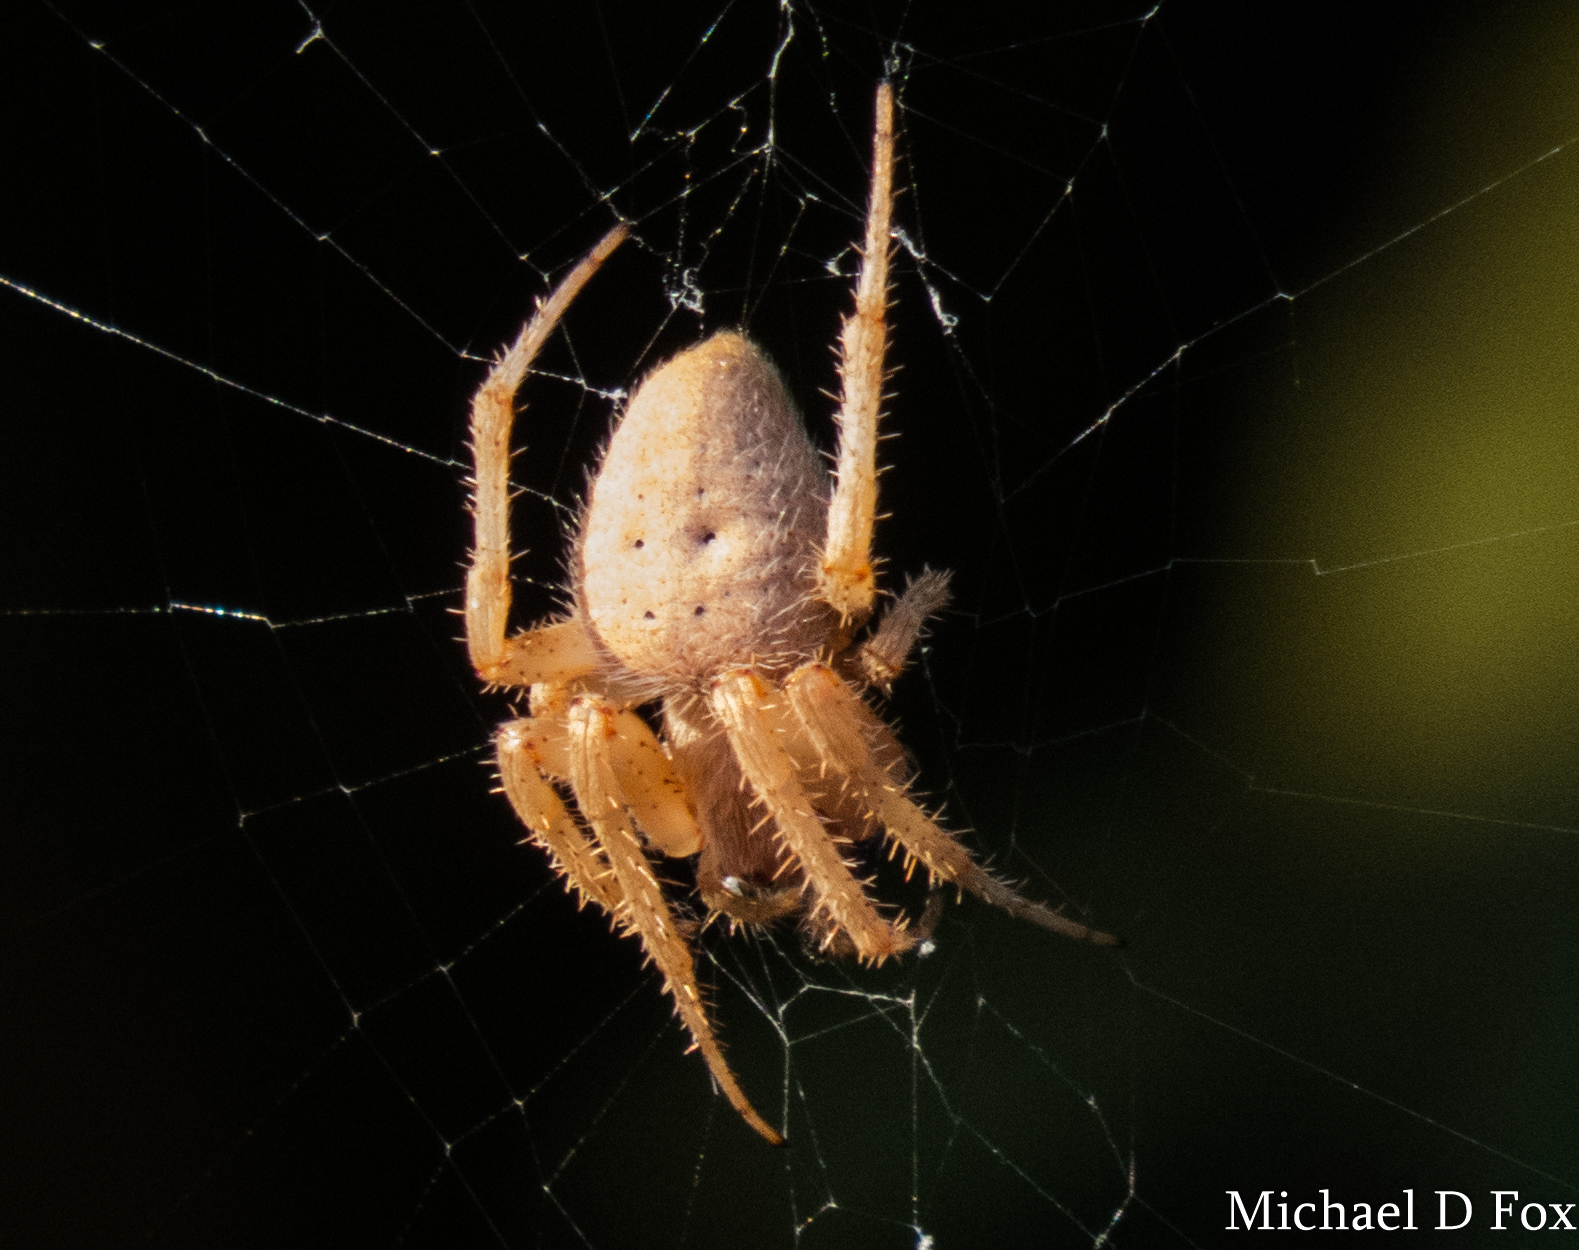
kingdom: Animalia
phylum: Arthropoda
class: Arachnida
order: Araneae
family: Araneidae
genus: Neoscona
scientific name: Neoscona crucifera
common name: Spotted orbweaver
